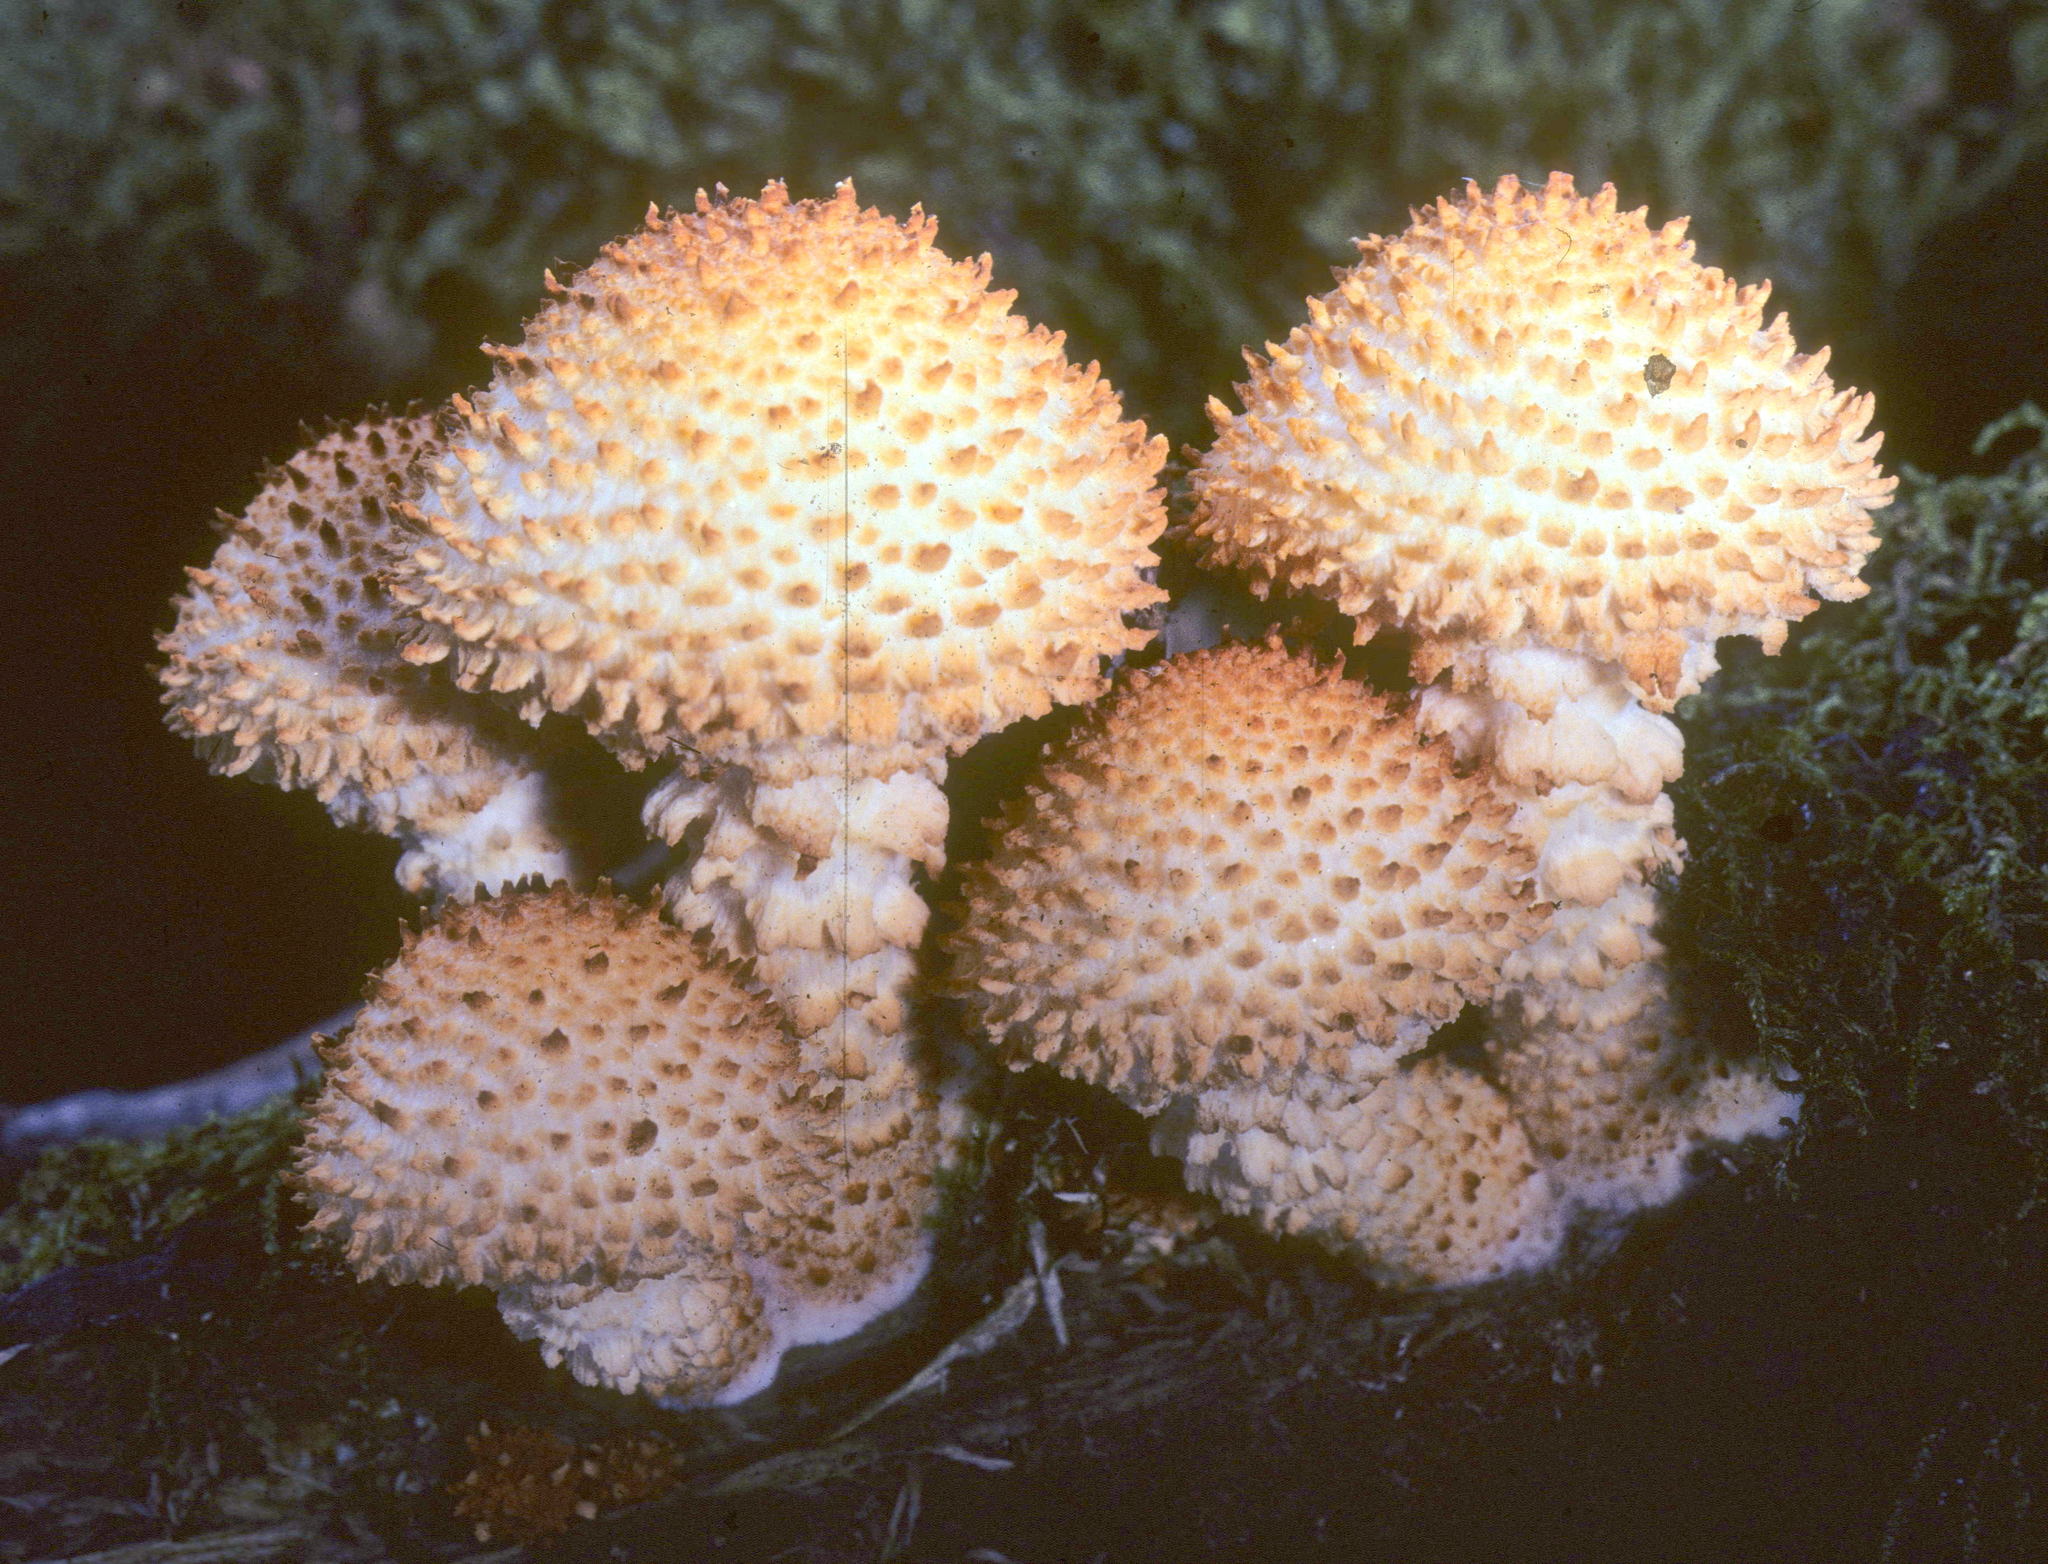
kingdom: Fungi
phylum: Basidiomycota
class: Agaricomycetes
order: Agaricales
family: Strophariaceae
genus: Pholiota
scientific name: Pholiota squarrosoides
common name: Sharp-scaly pholiota
